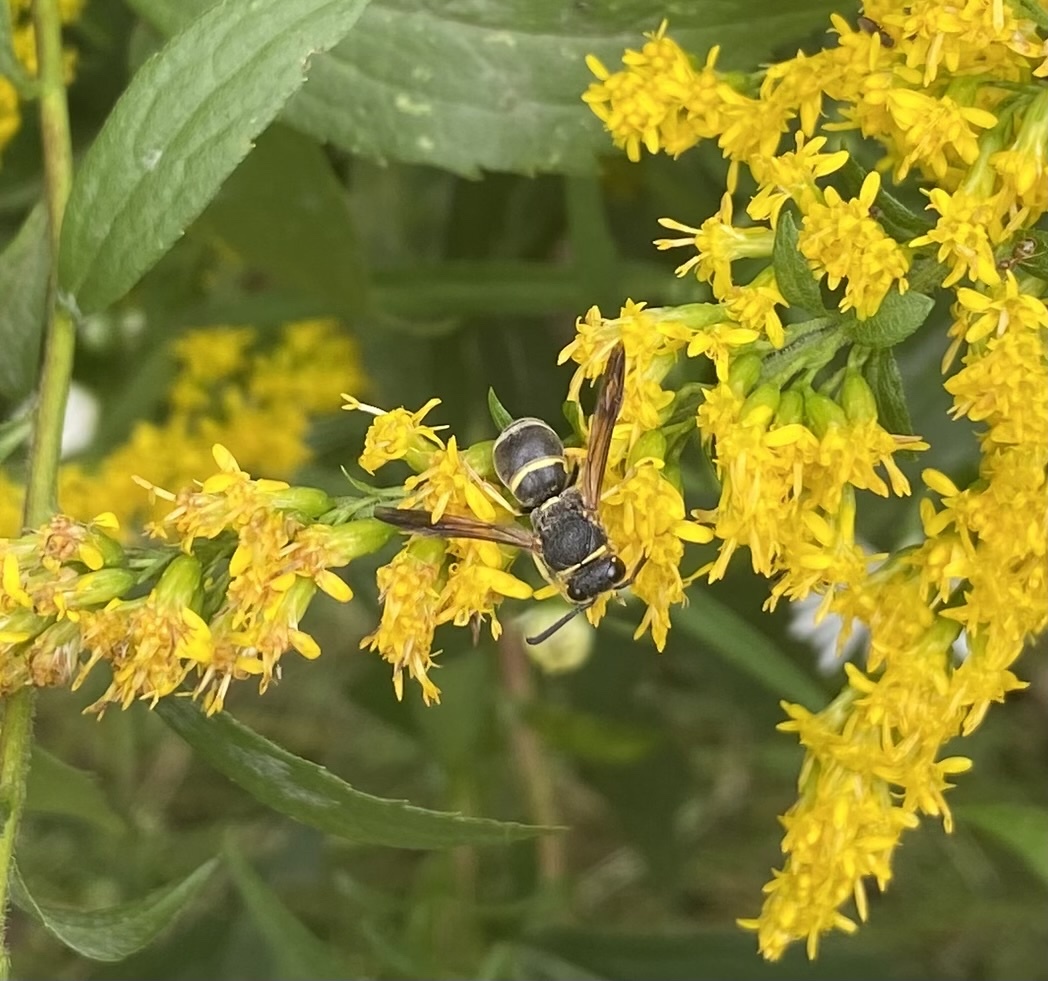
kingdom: Animalia
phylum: Arthropoda
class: Insecta
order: Hymenoptera
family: Eumenidae
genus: Euodynerus
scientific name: Euodynerus hidalgo
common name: Wasp
